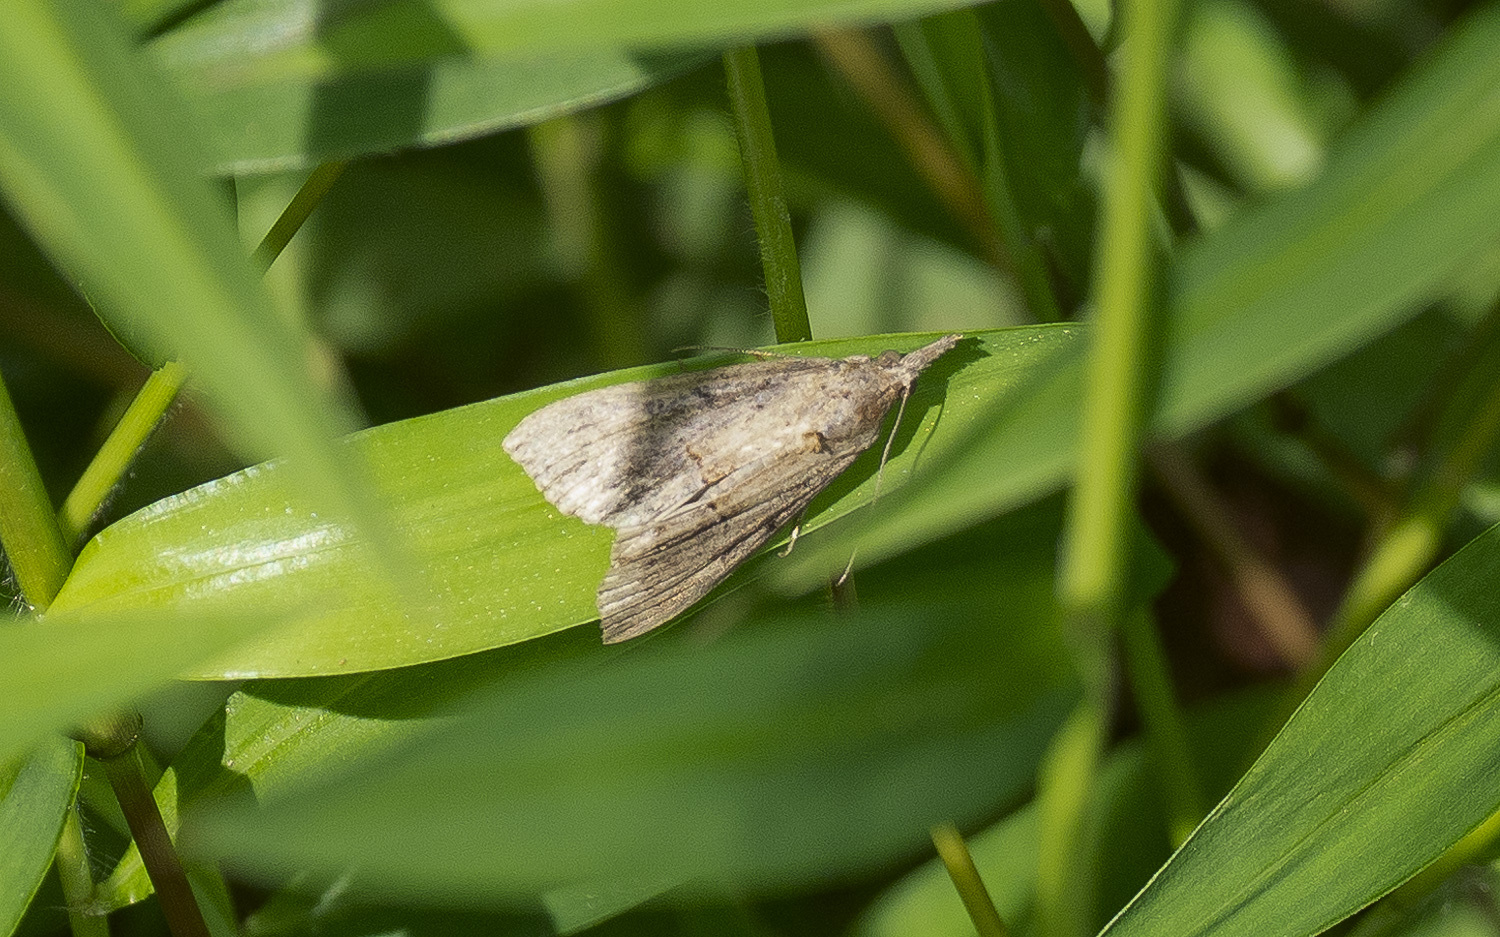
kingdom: Animalia
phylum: Arthropoda
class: Insecta
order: Lepidoptera
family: Erebidae
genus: Hypena
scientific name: Hypena scabra
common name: Green cloverworm
